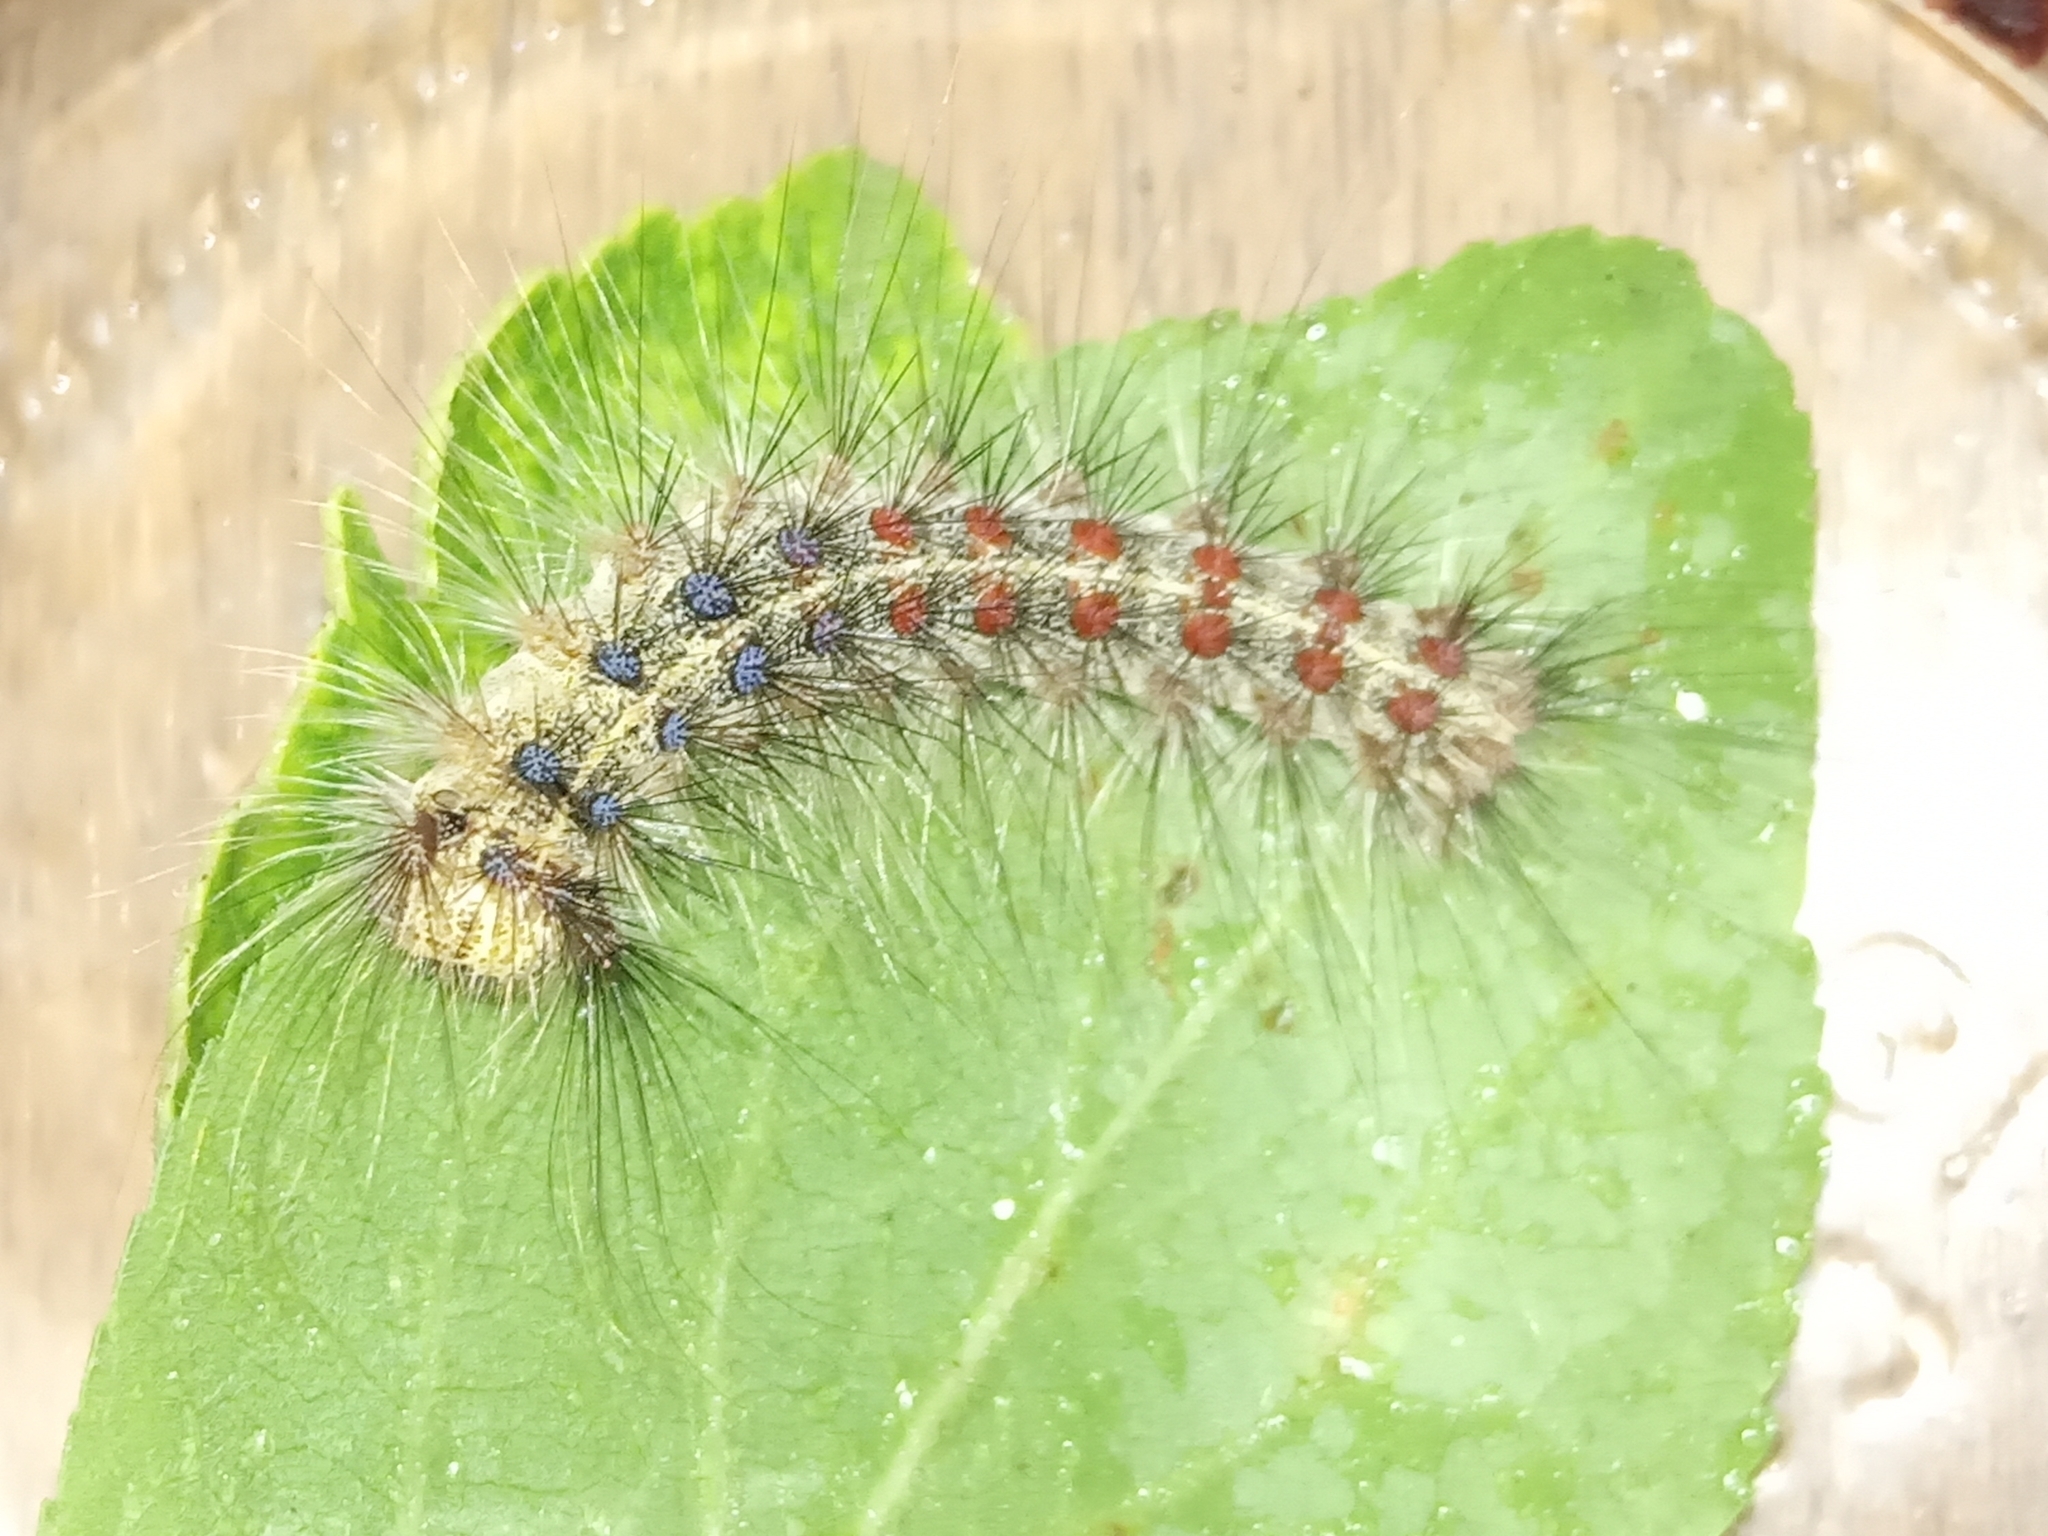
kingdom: Animalia
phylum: Arthropoda
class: Insecta
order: Lepidoptera
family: Erebidae
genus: Lymantria
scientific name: Lymantria dispar
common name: Gypsy moth
